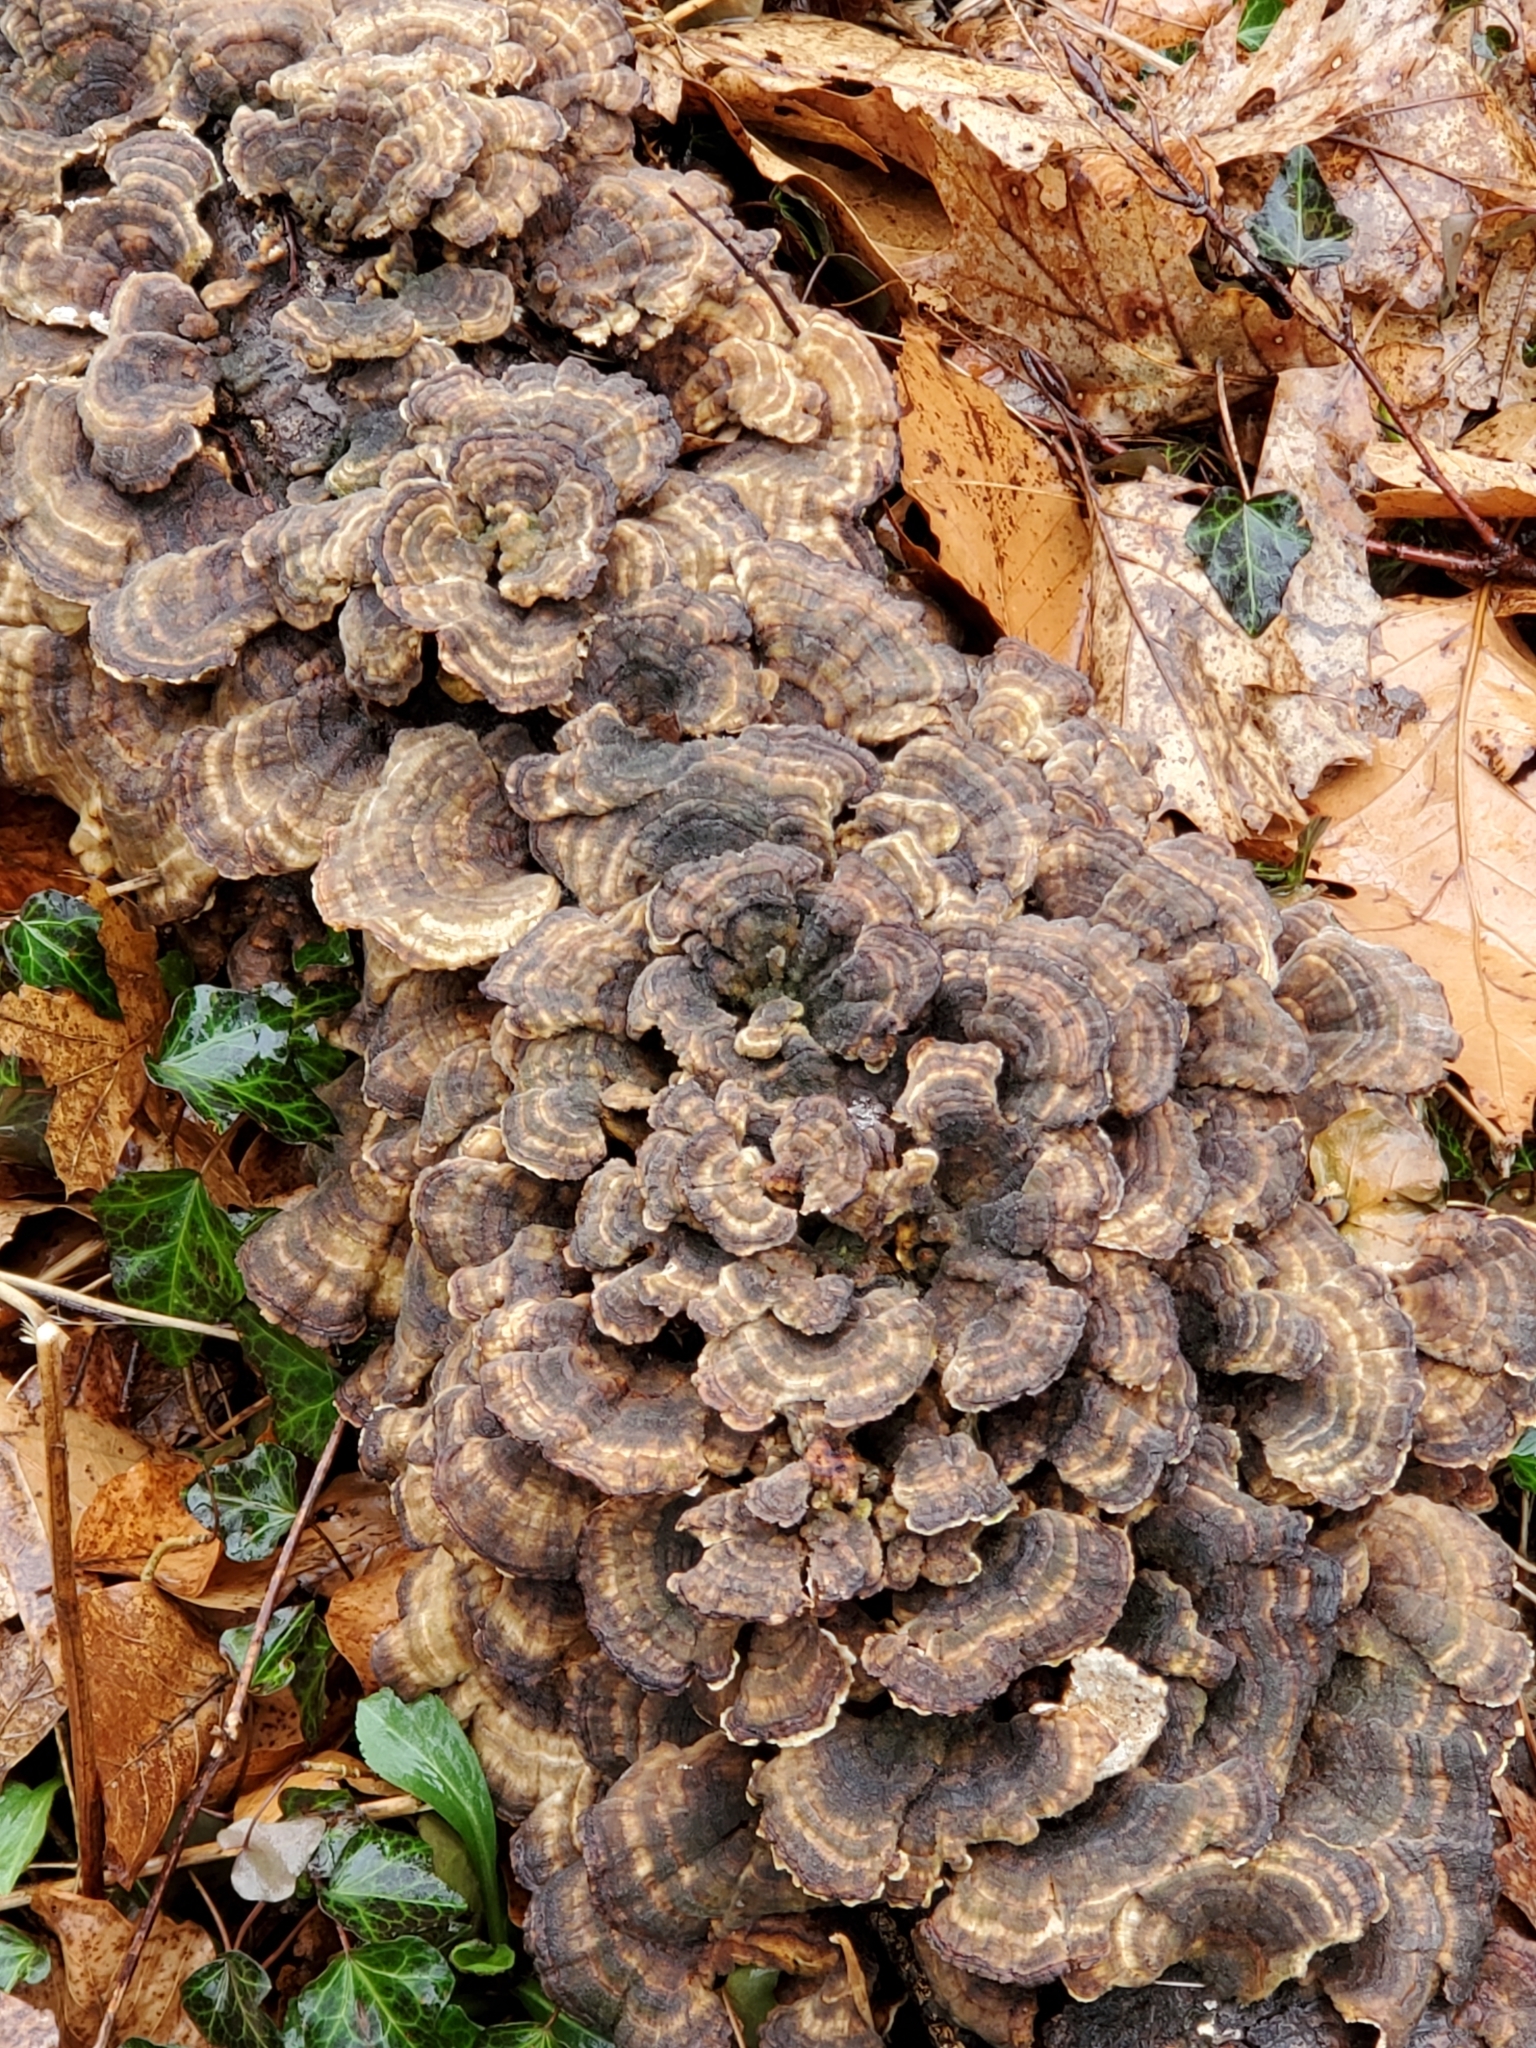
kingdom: Fungi
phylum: Basidiomycota
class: Agaricomycetes
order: Polyporales
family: Polyporaceae
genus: Trametes
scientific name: Trametes versicolor
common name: Turkeytail
